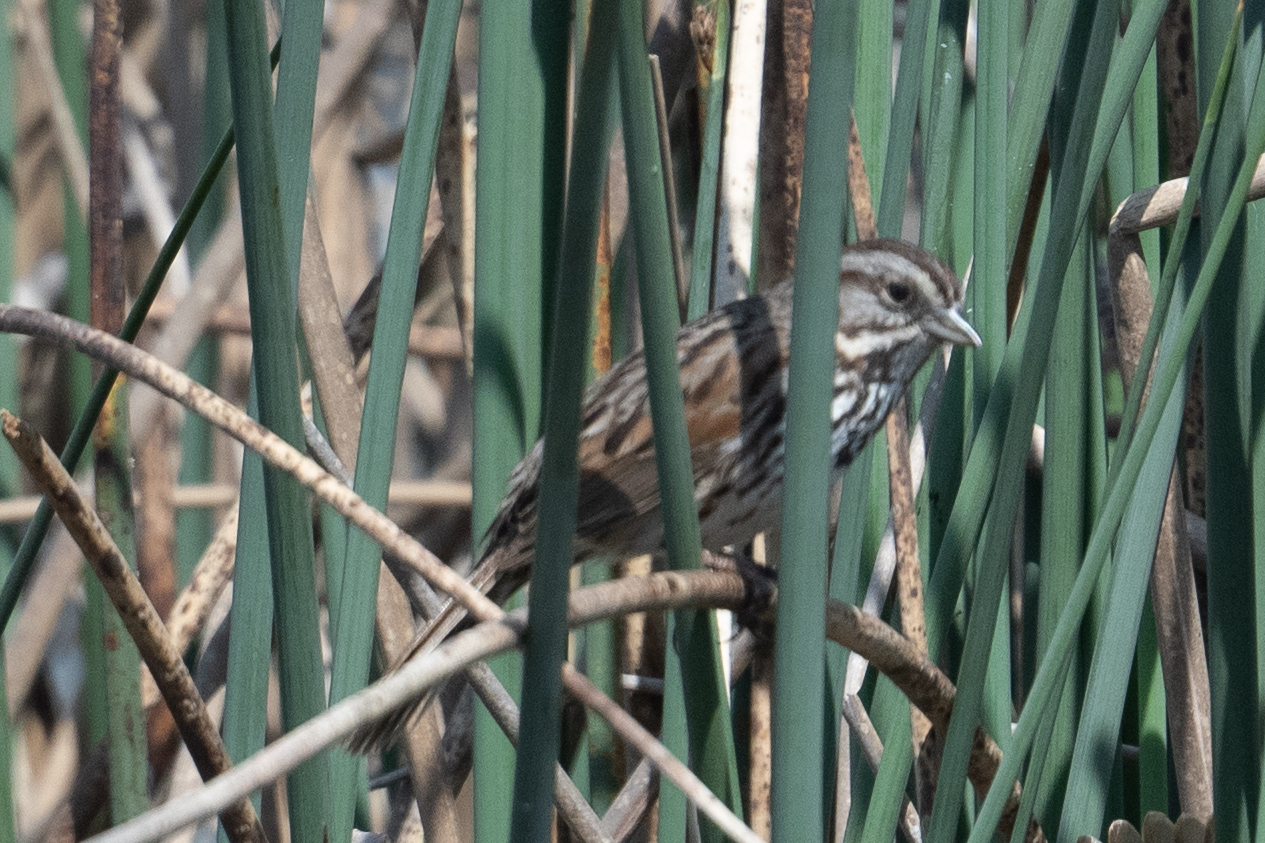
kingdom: Animalia
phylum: Chordata
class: Aves
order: Passeriformes
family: Passerellidae
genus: Melospiza
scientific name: Melospiza melodia
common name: Song sparrow
